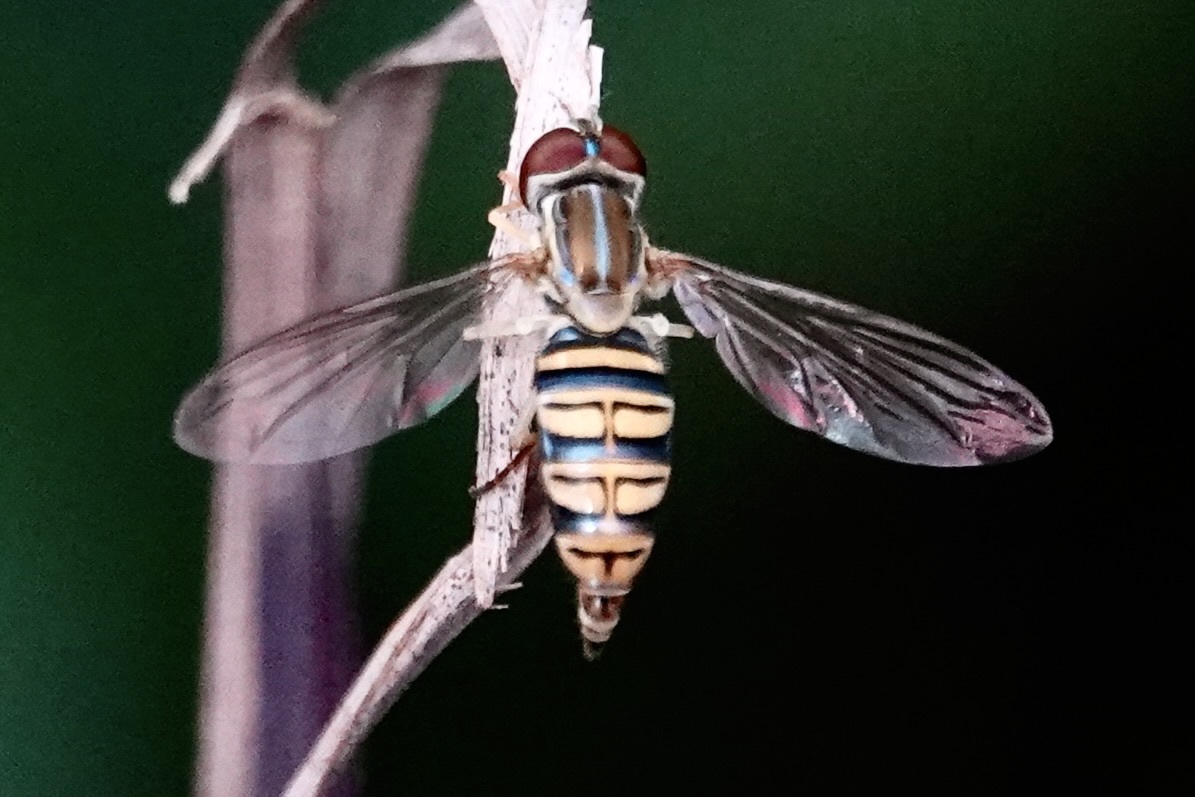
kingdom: Animalia
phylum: Arthropoda
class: Insecta
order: Diptera
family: Syrphidae
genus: Toxomerus
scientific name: Toxomerus politus
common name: Maize calligrapher
